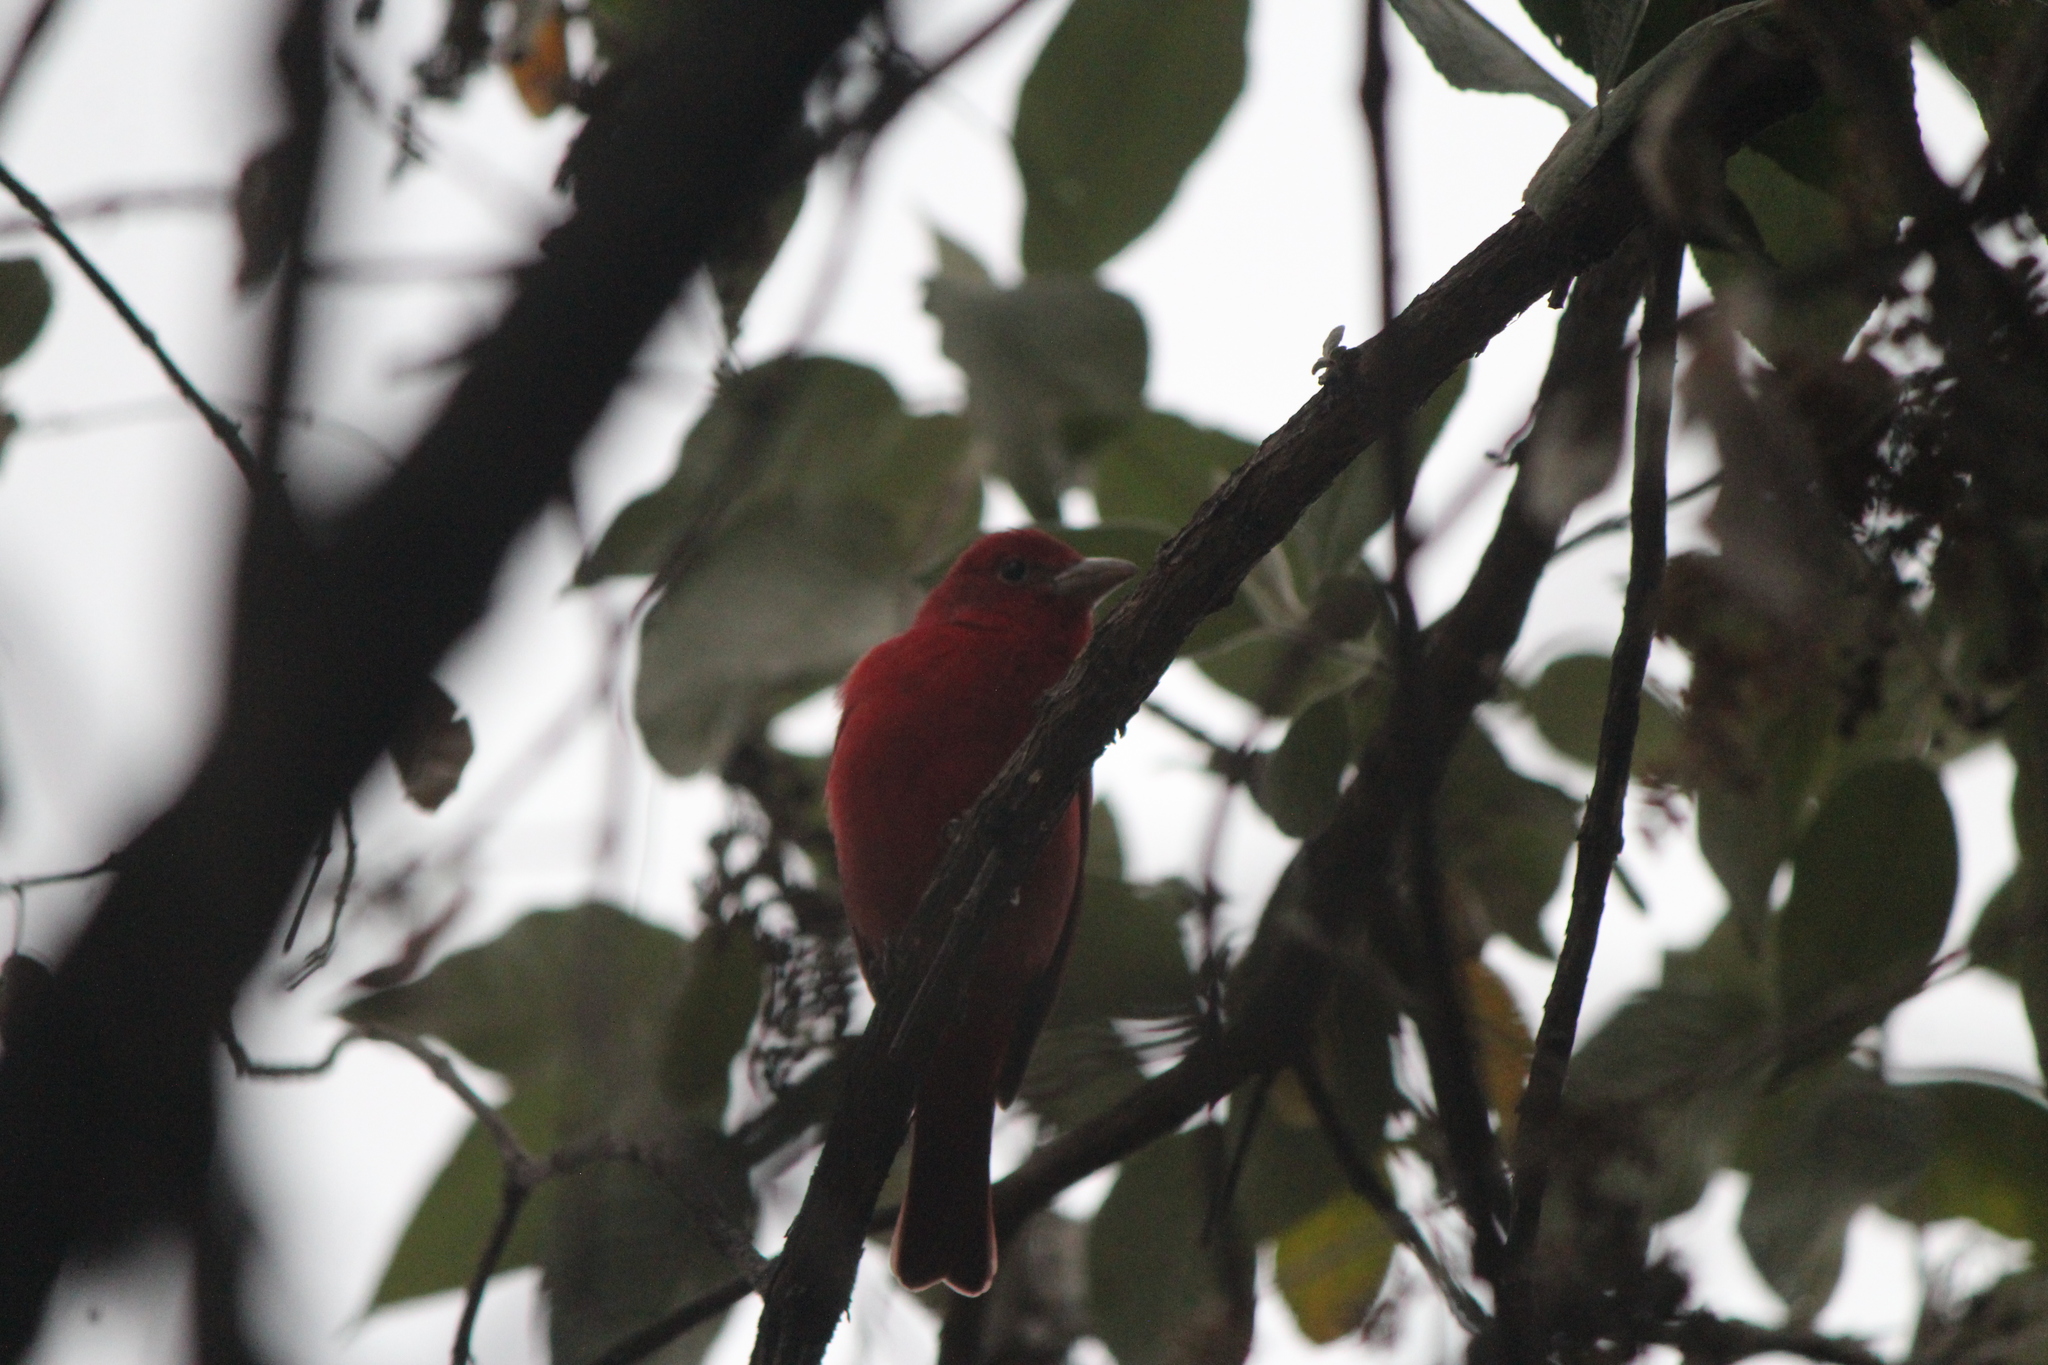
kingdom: Animalia
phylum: Chordata
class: Aves
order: Passeriformes
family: Cardinalidae
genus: Piranga
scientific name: Piranga rubra
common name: Summer tanager
